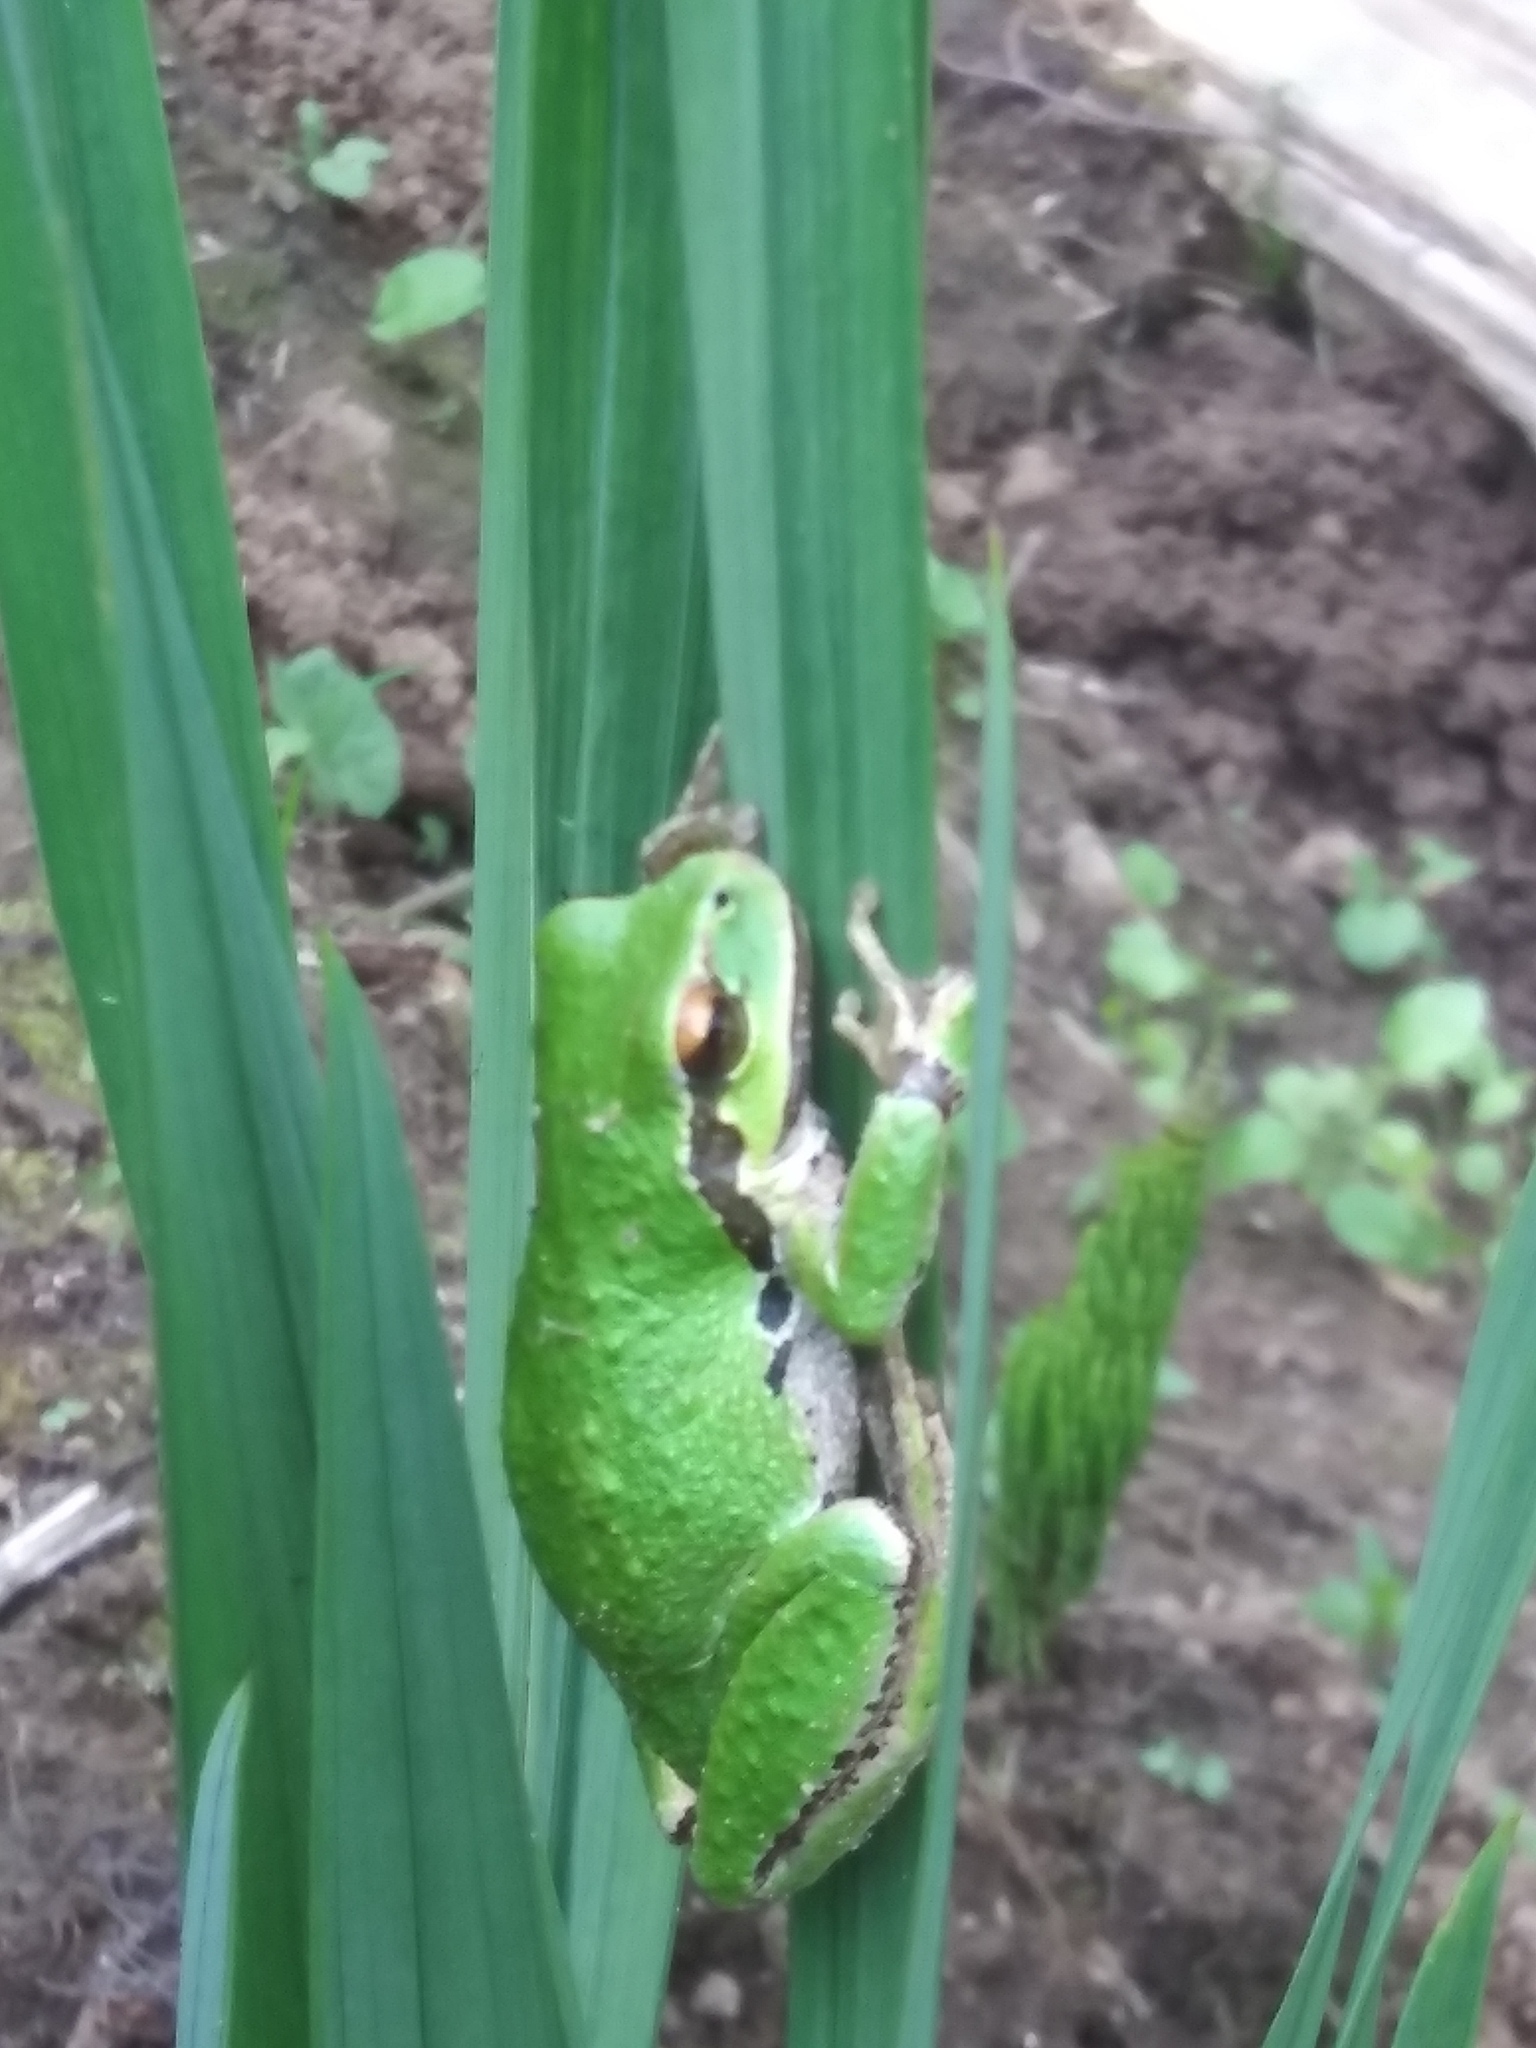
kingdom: Animalia
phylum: Chordata
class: Amphibia
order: Anura
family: Hylidae
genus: Pseudacris
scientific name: Pseudacris regilla
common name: Pacific chorus frog
